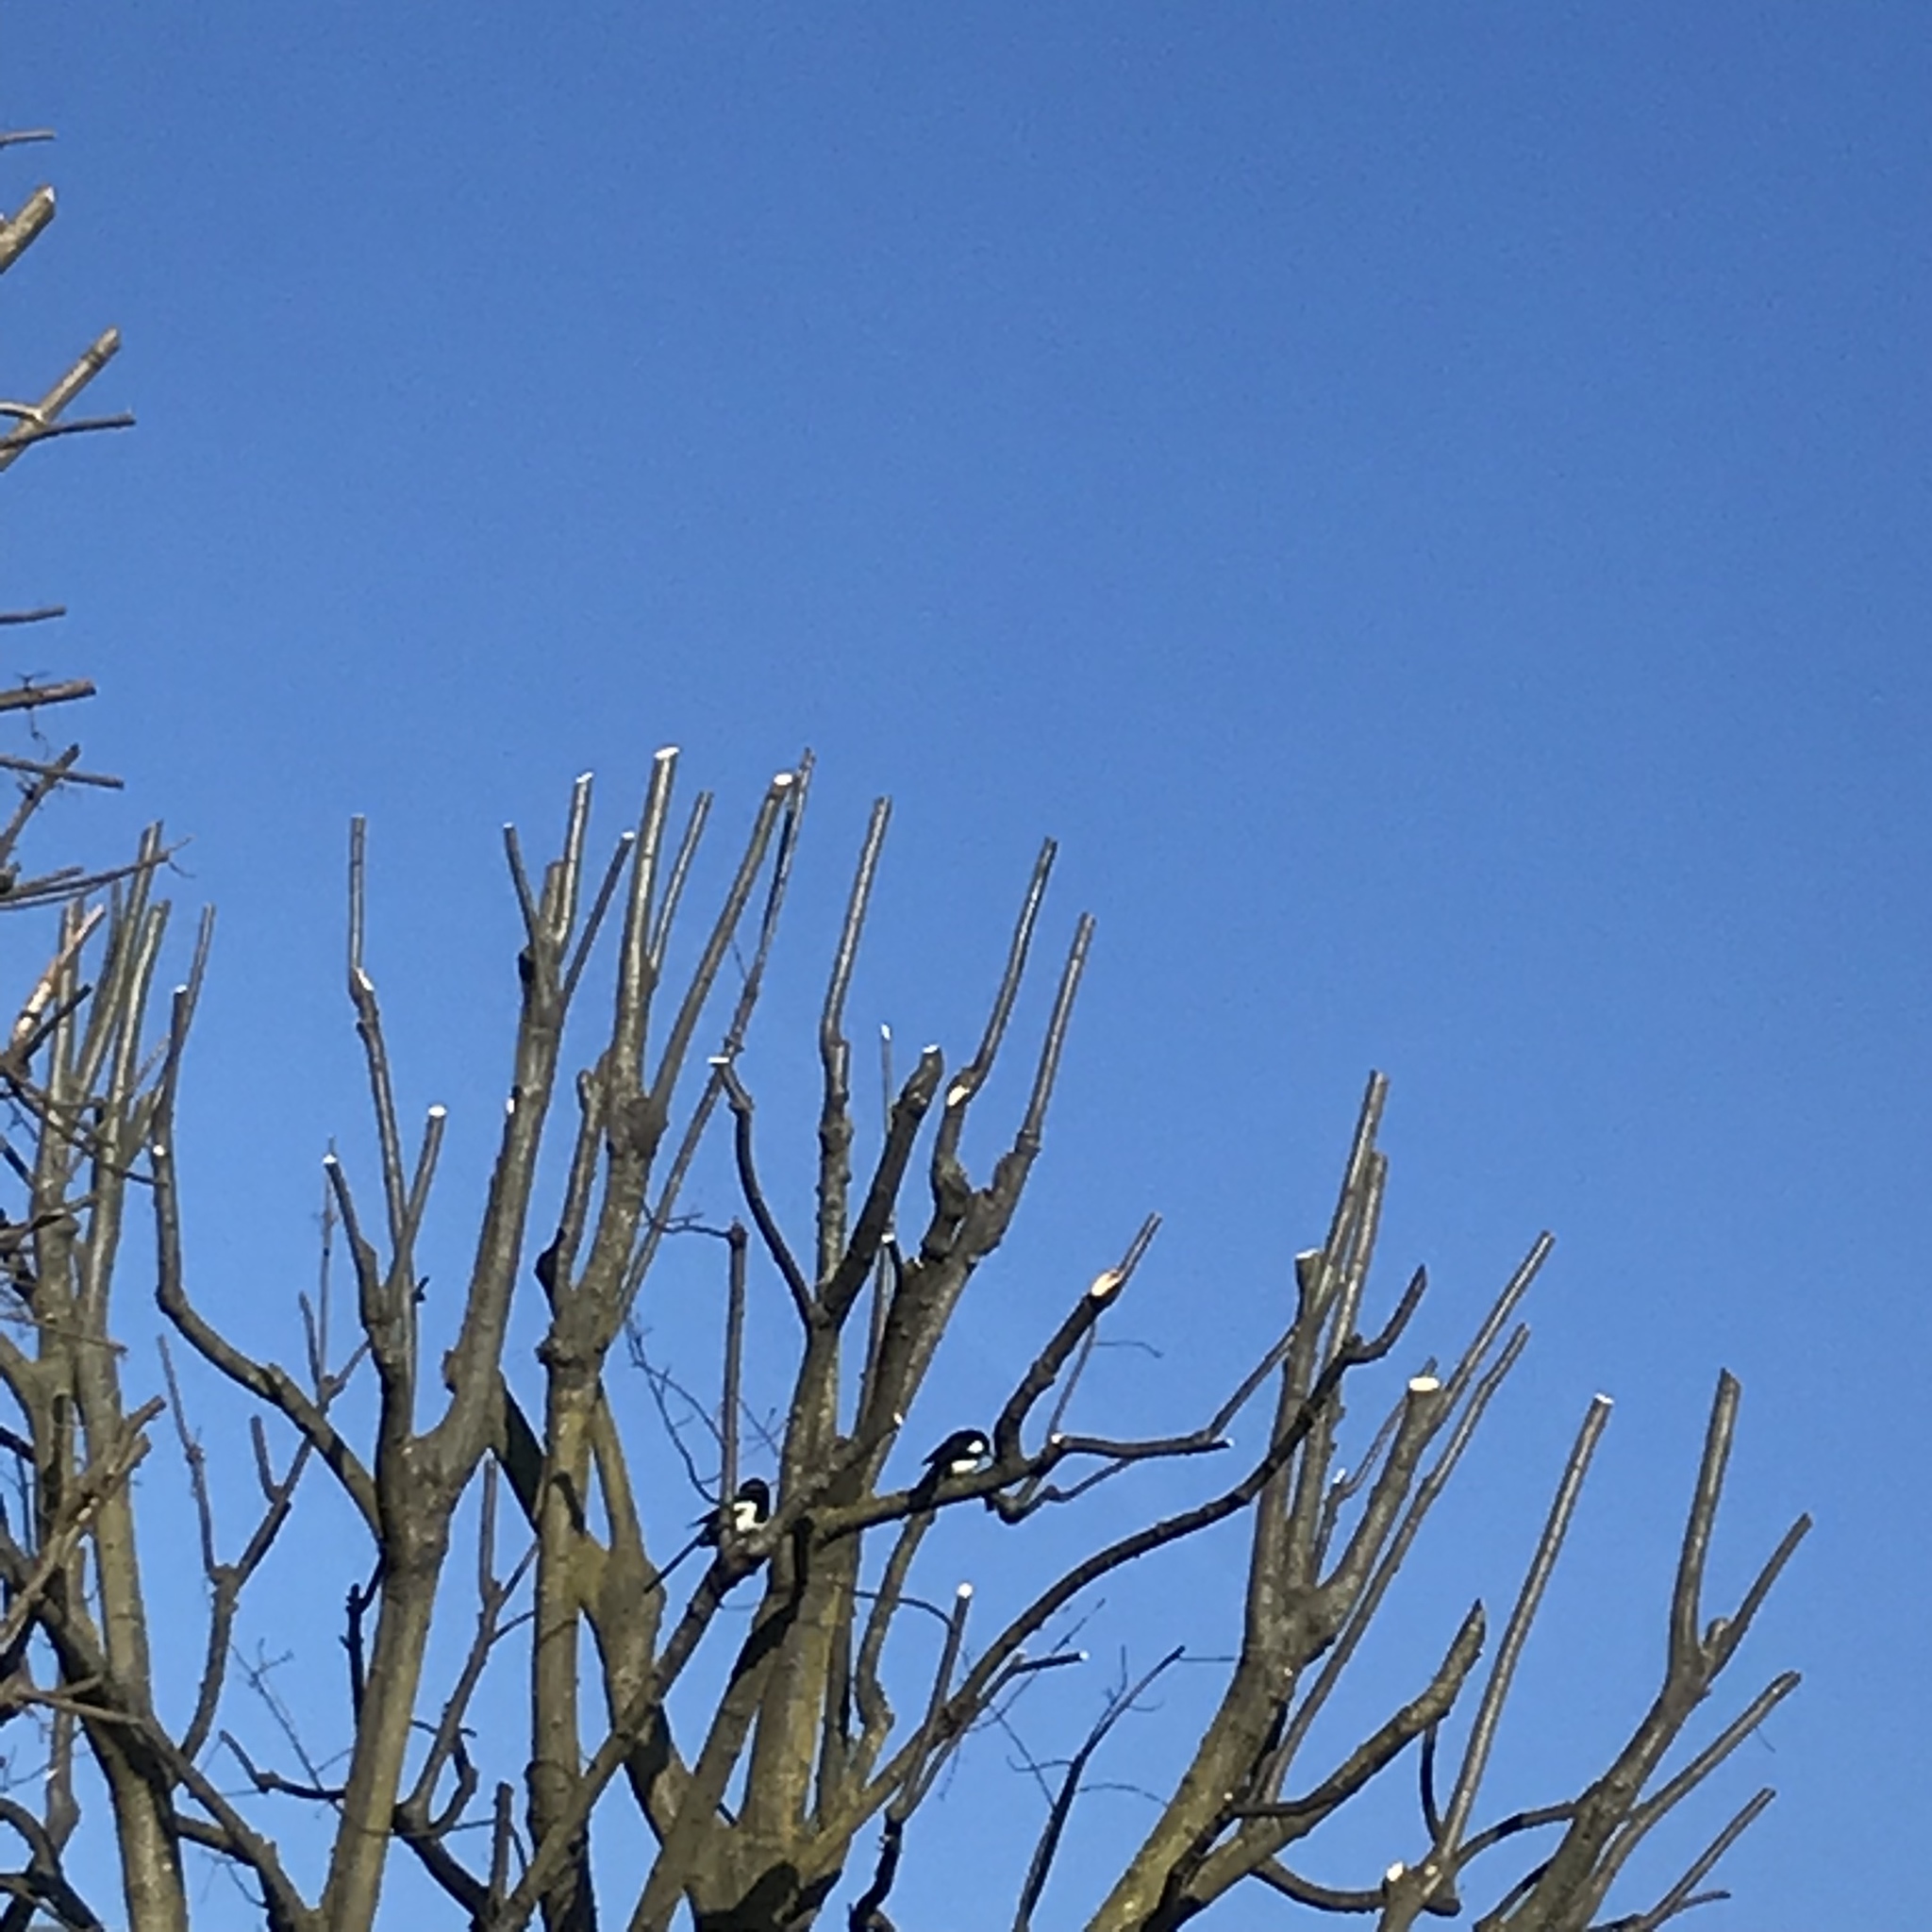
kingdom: Animalia
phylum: Chordata
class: Aves
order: Passeriformes
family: Corvidae
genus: Pica
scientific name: Pica pica
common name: Eurasian magpie
